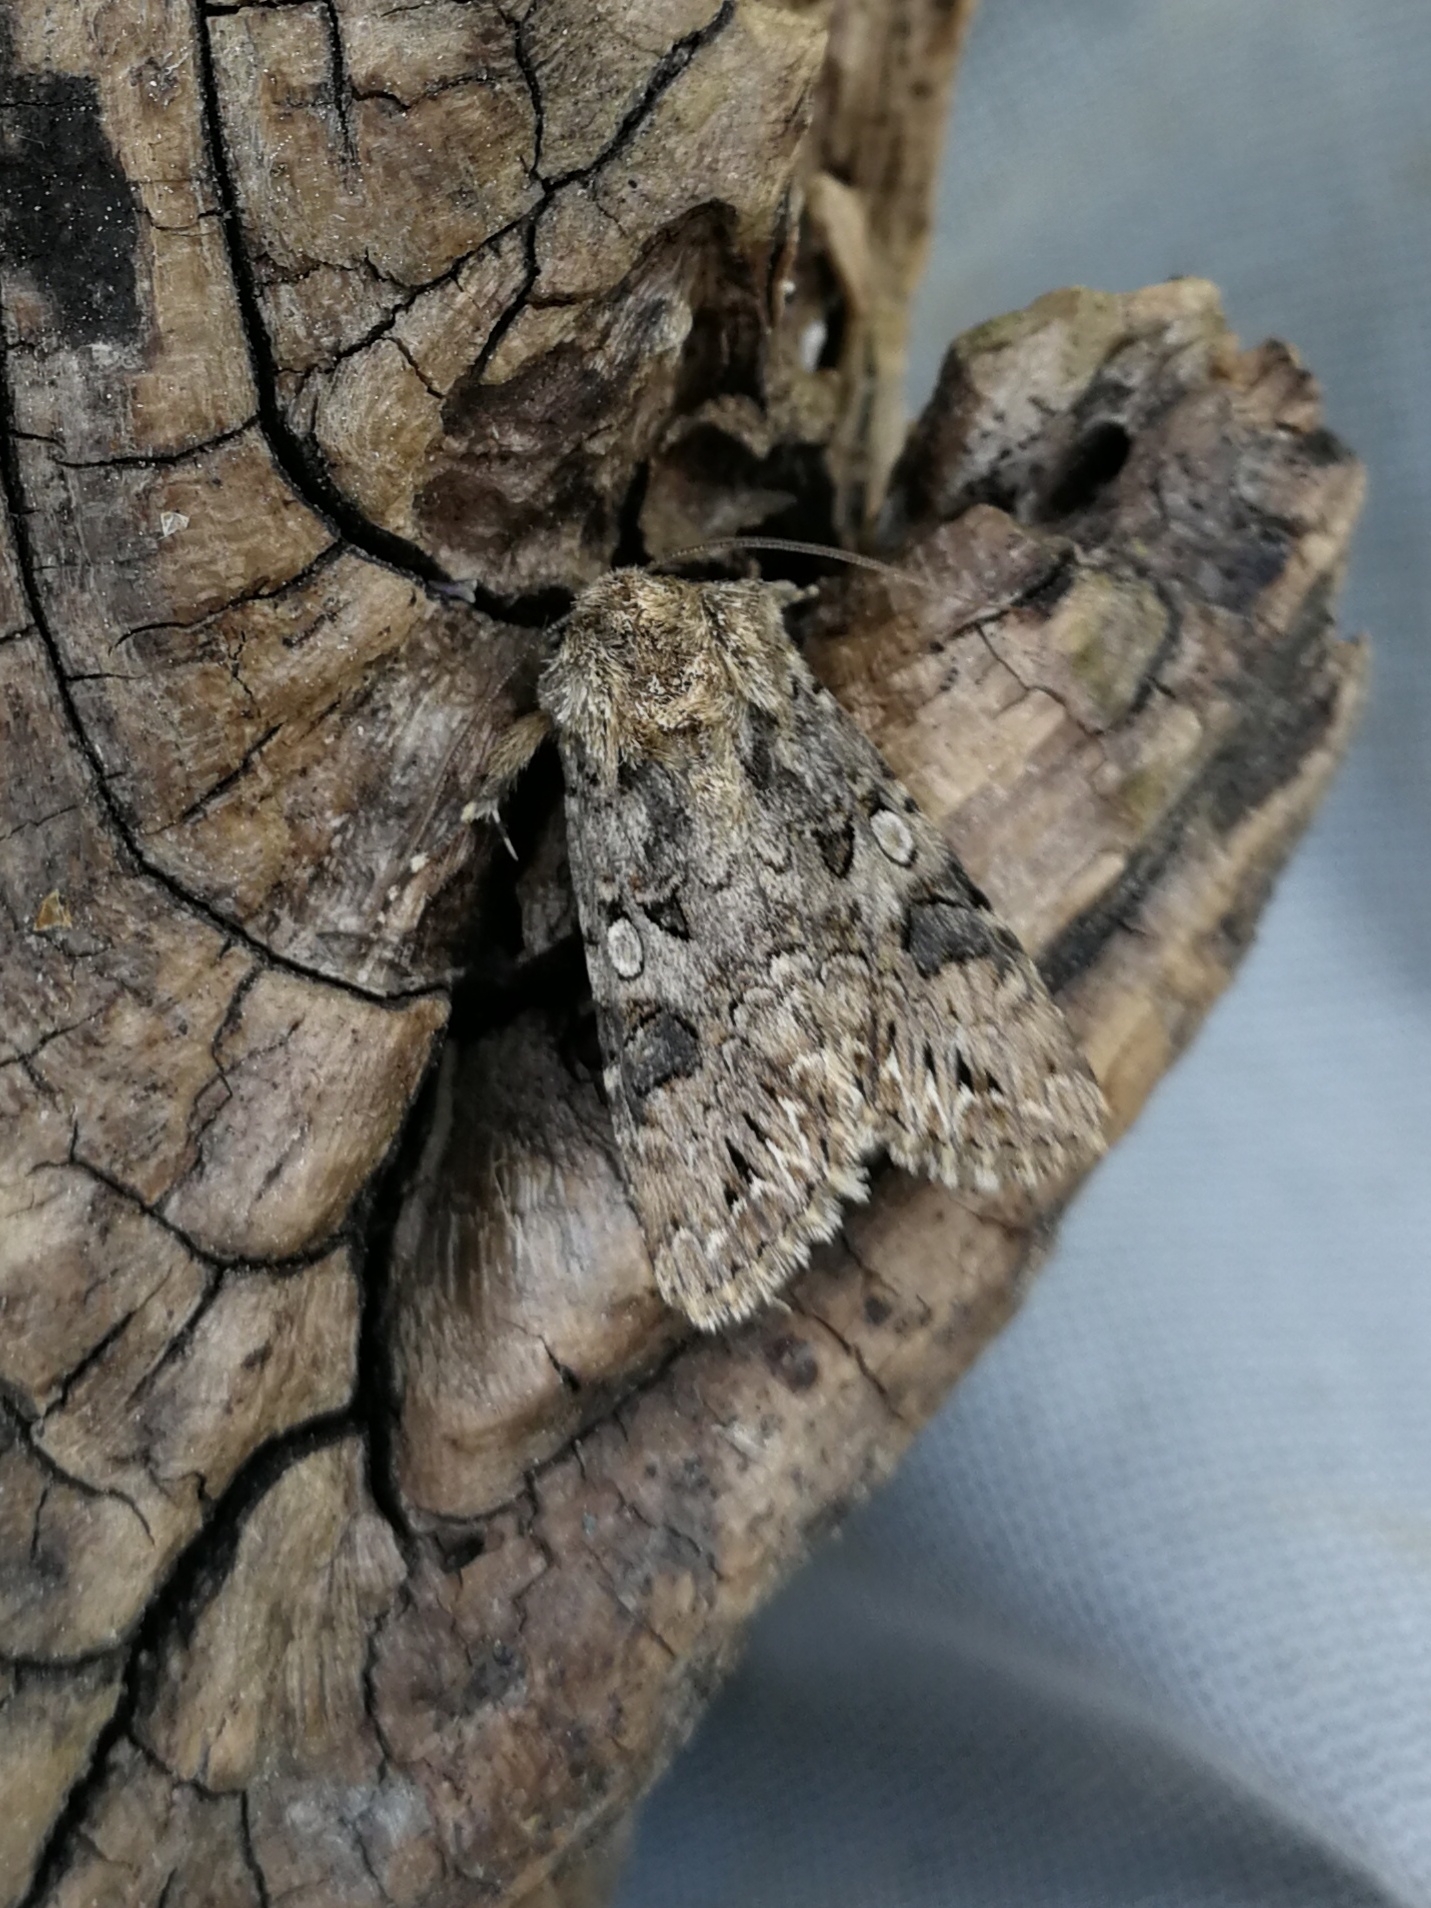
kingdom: Animalia
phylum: Arthropoda
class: Insecta
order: Lepidoptera
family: Noctuidae
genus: Anarta
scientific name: Anarta pugnax
